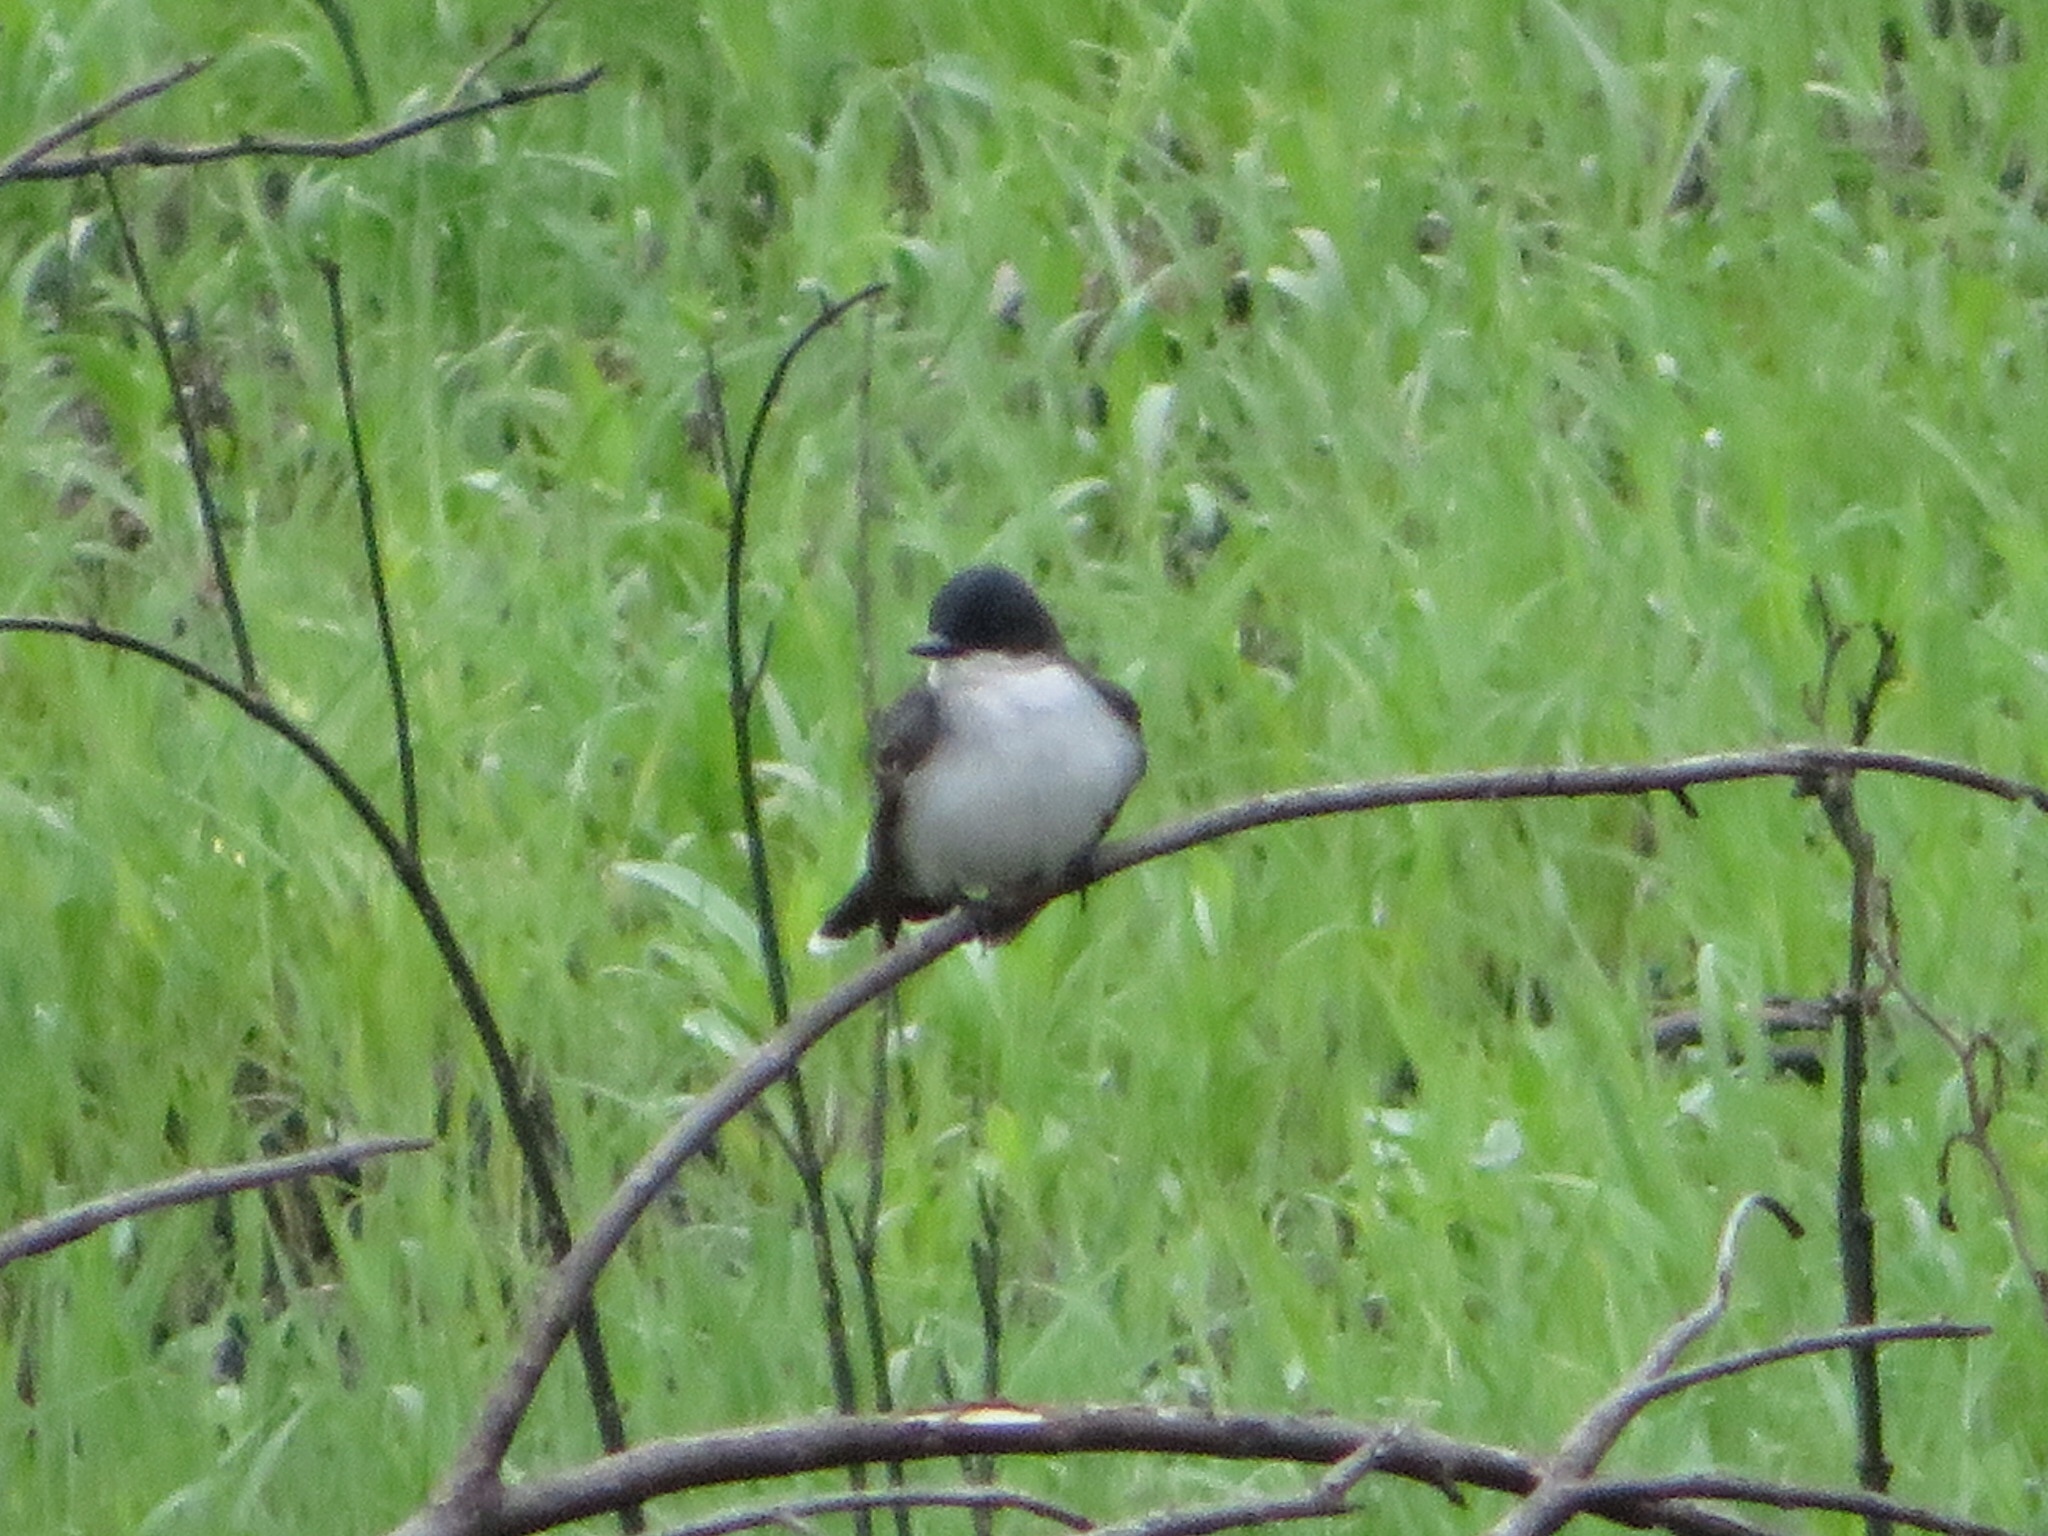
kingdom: Animalia
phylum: Chordata
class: Aves
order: Passeriformes
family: Tyrannidae
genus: Tyrannus
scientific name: Tyrannus tyrannus
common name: Eastern kingbird
